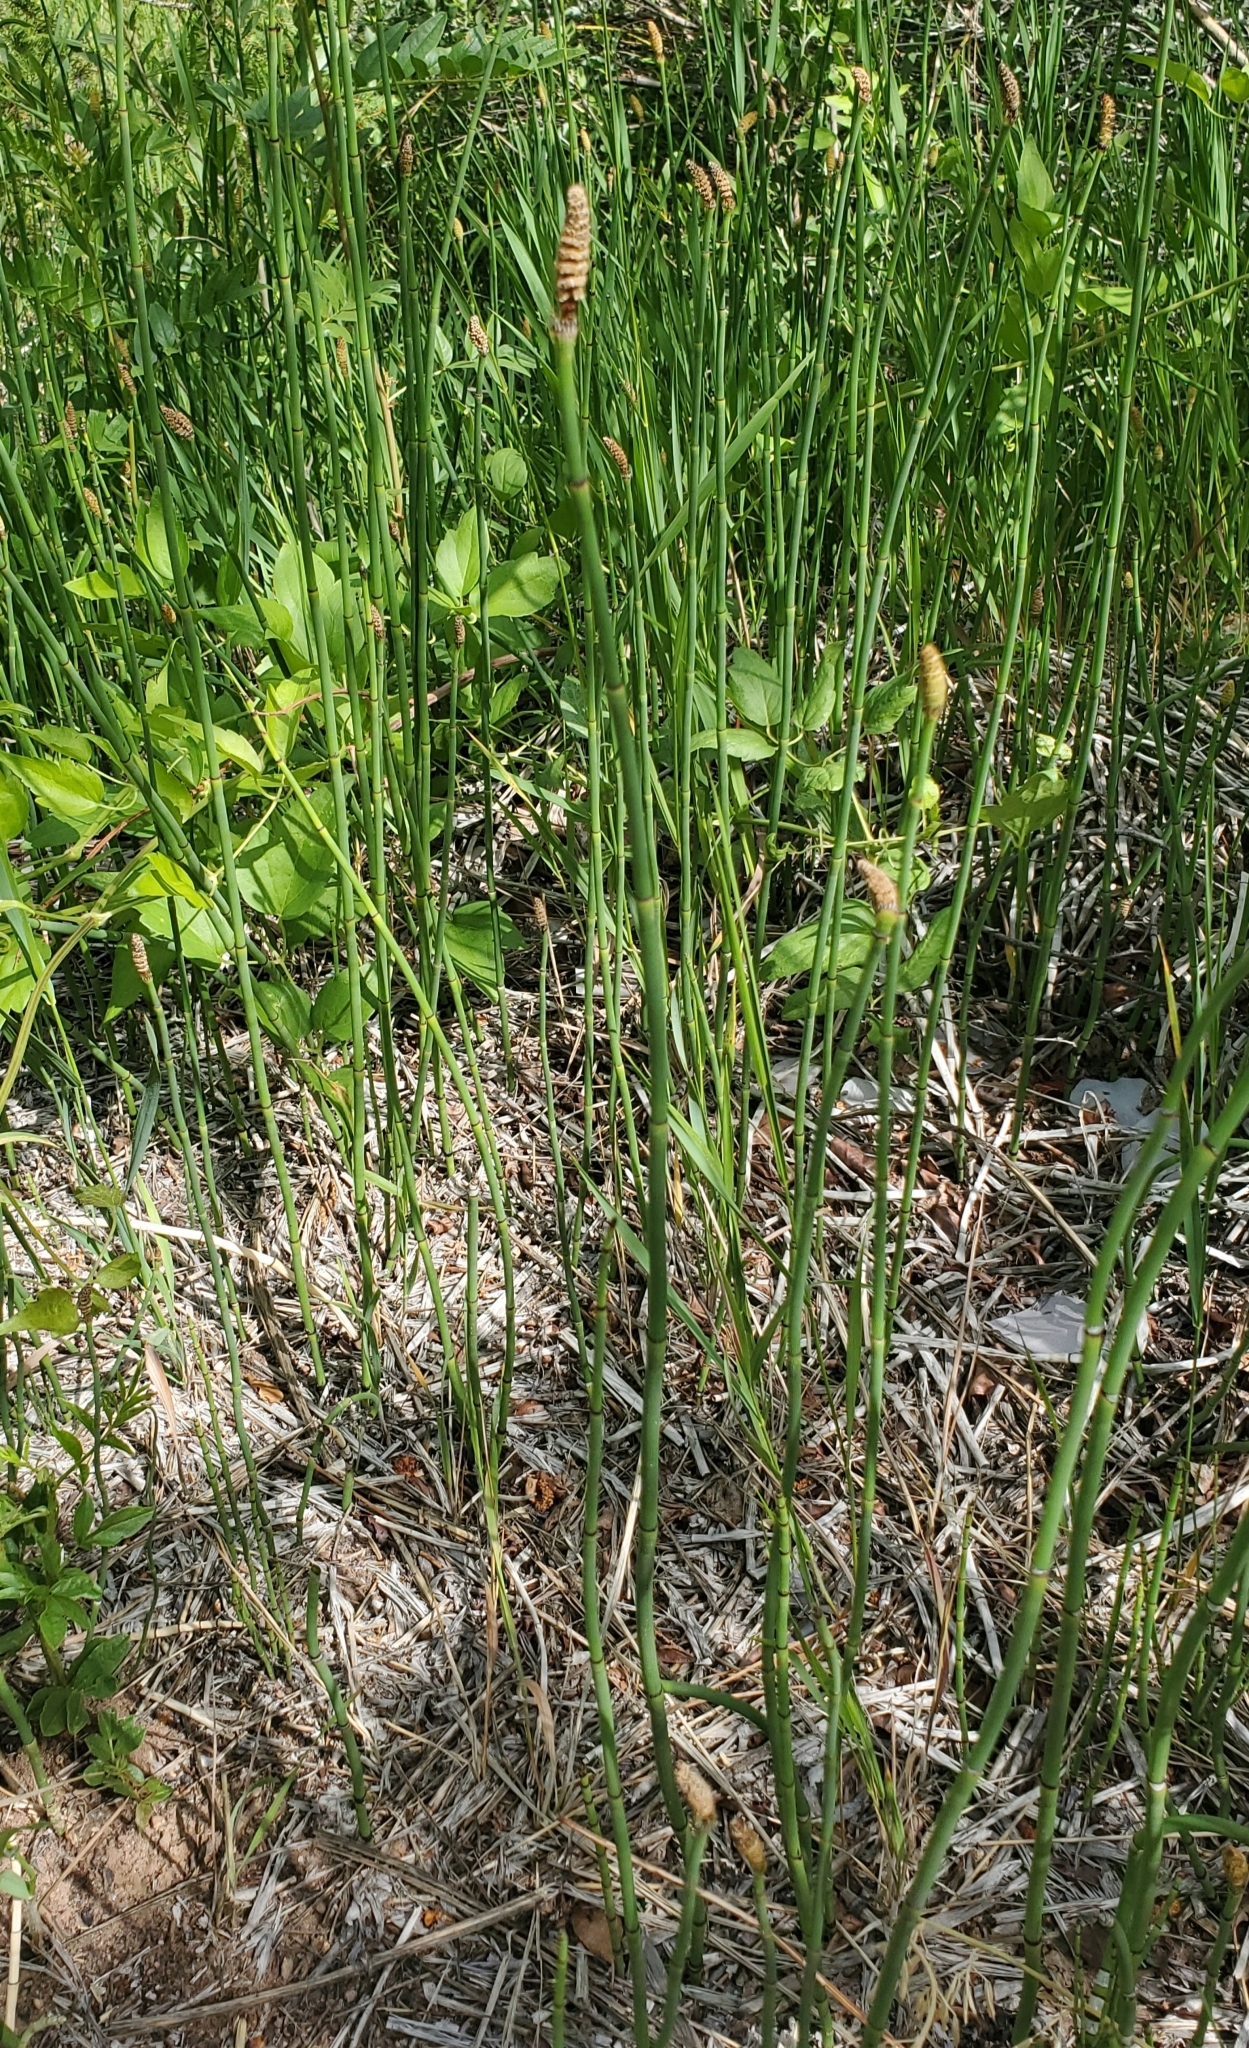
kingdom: Plantae
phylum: Tracheophyta
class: Polypodiopsida
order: Equisetales
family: Equisetaceae
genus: Equisetum
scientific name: Equisetum laevigatum
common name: Smooth scouring-rush
